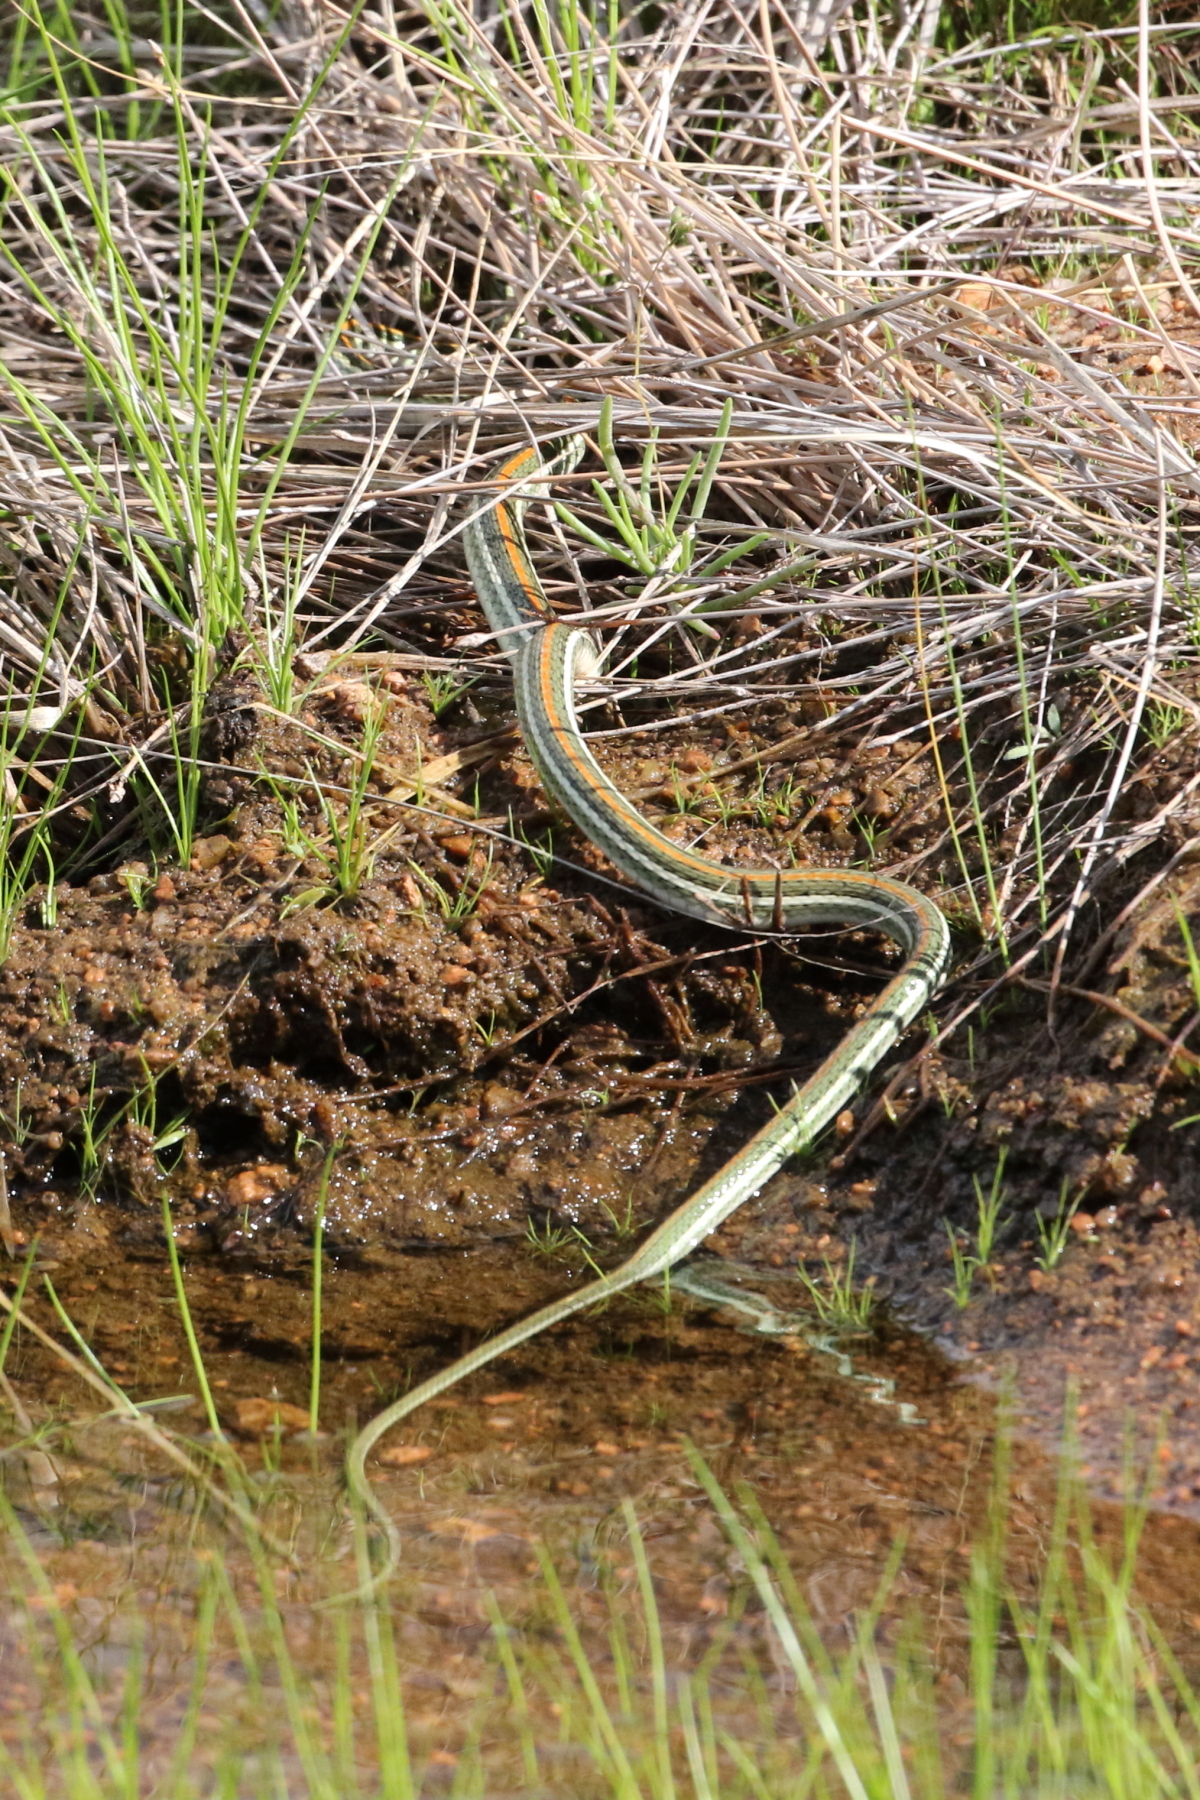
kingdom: Animalia
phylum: Chordata
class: Squamata
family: Colubridae
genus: Thamnophis
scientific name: Thamnophis proximus
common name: Western ribbon snake
